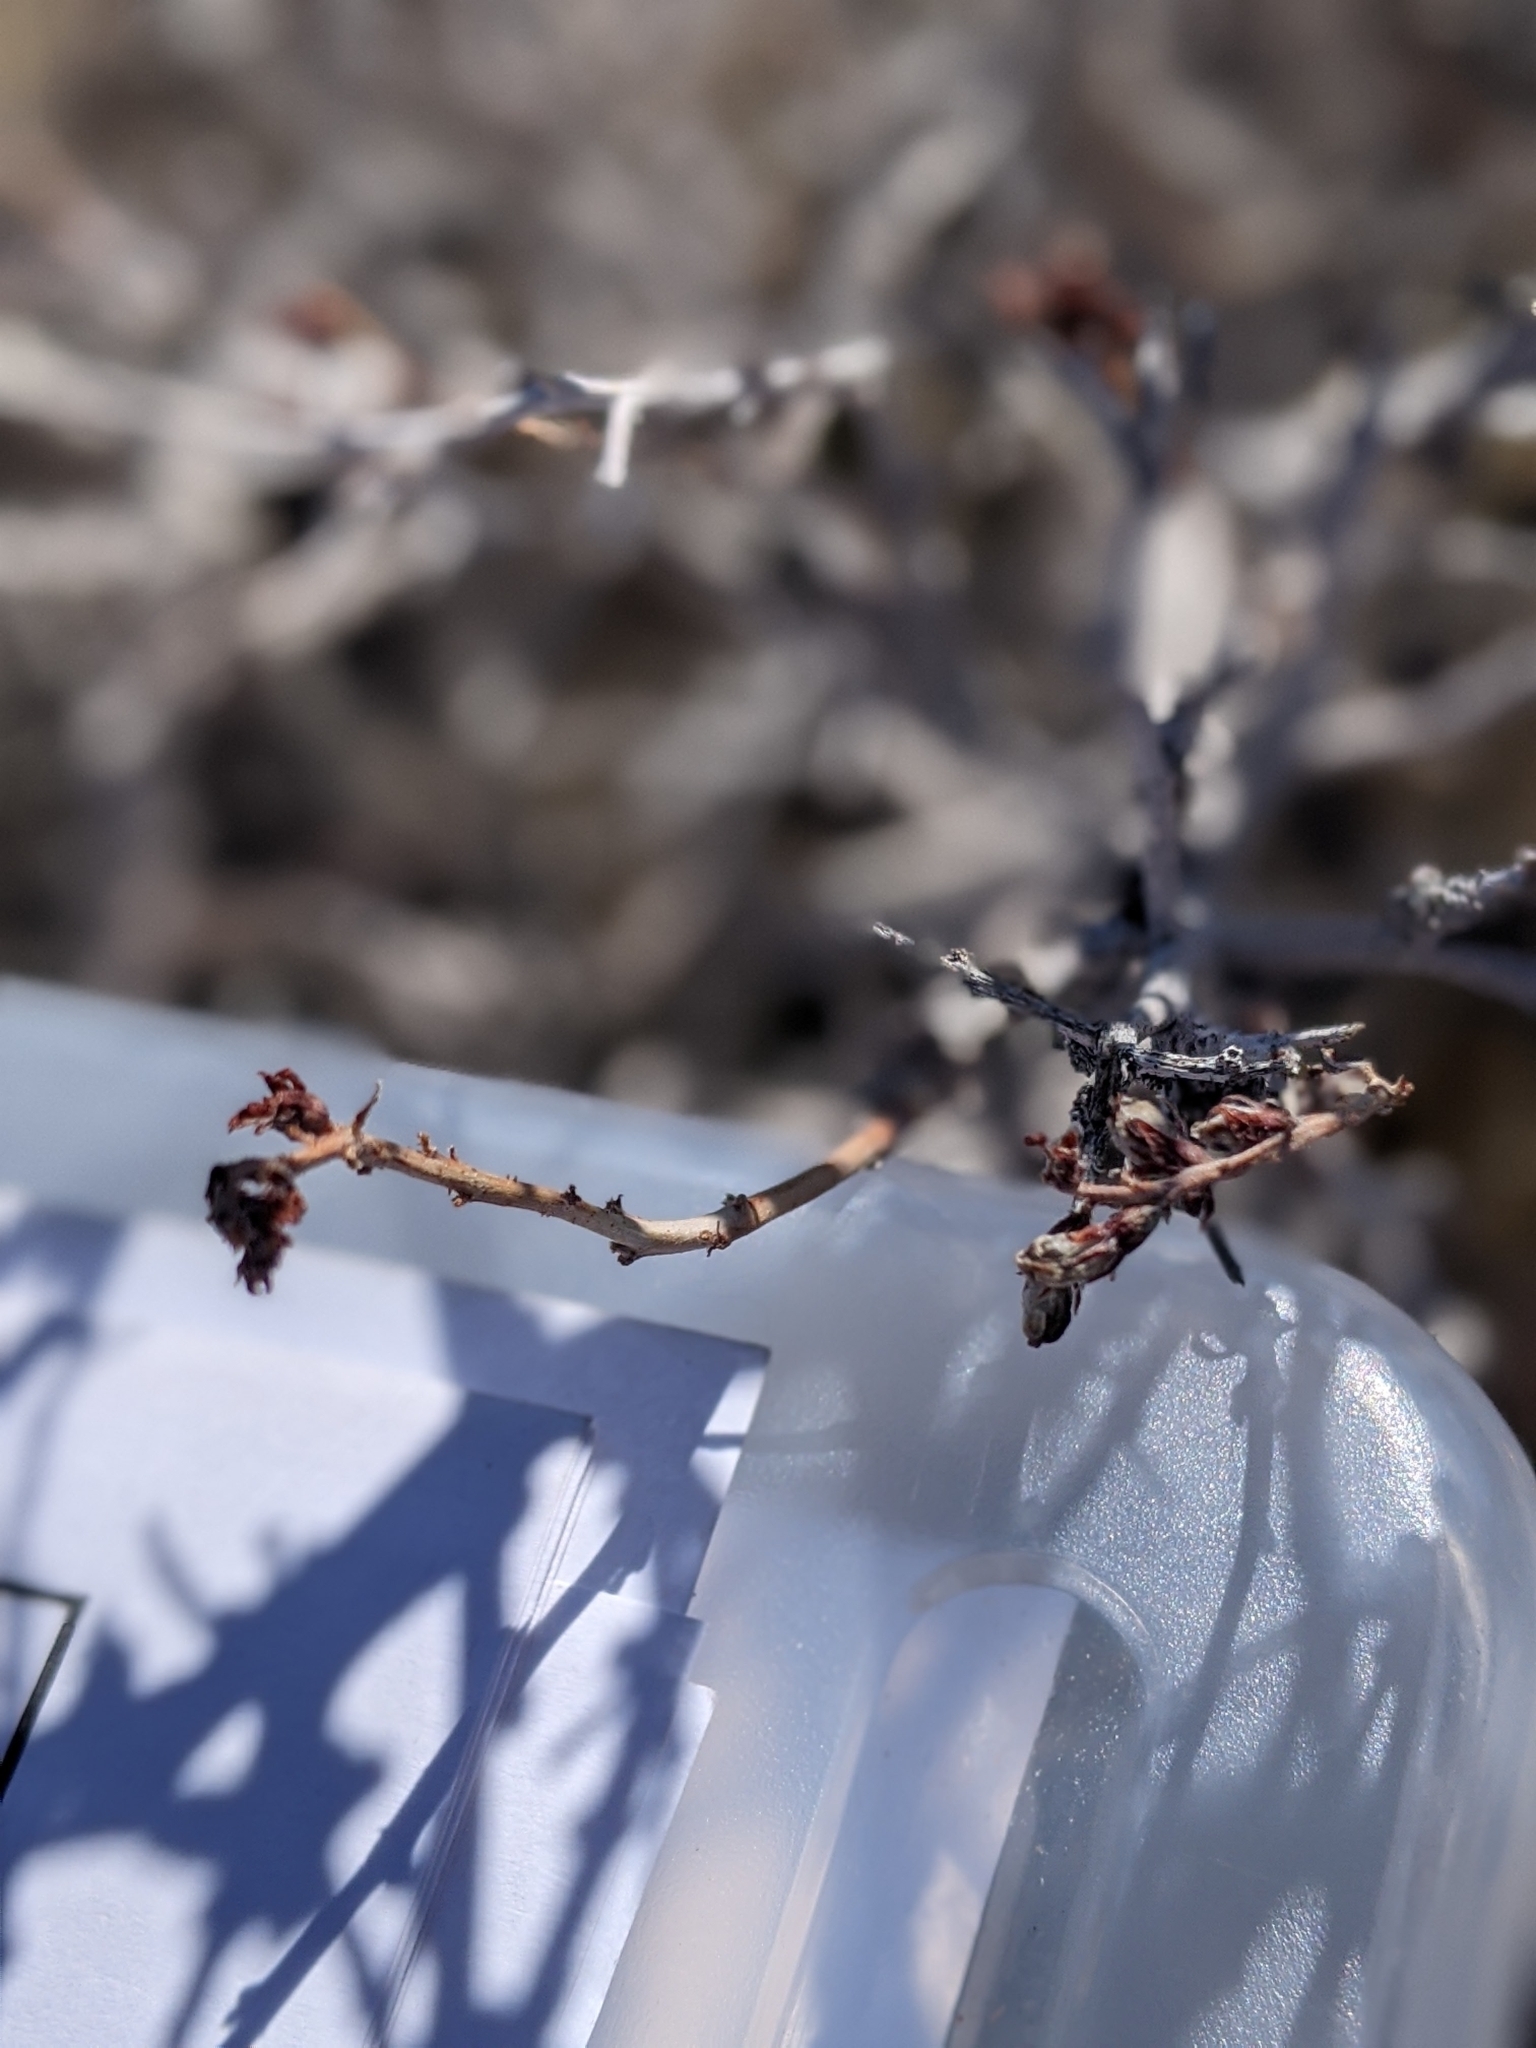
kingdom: Plantae
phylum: Tracheophyta
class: Magnoliopsida
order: Fabales
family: Fabaceae
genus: Psorothamnus
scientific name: Psorothamnus arborescens
